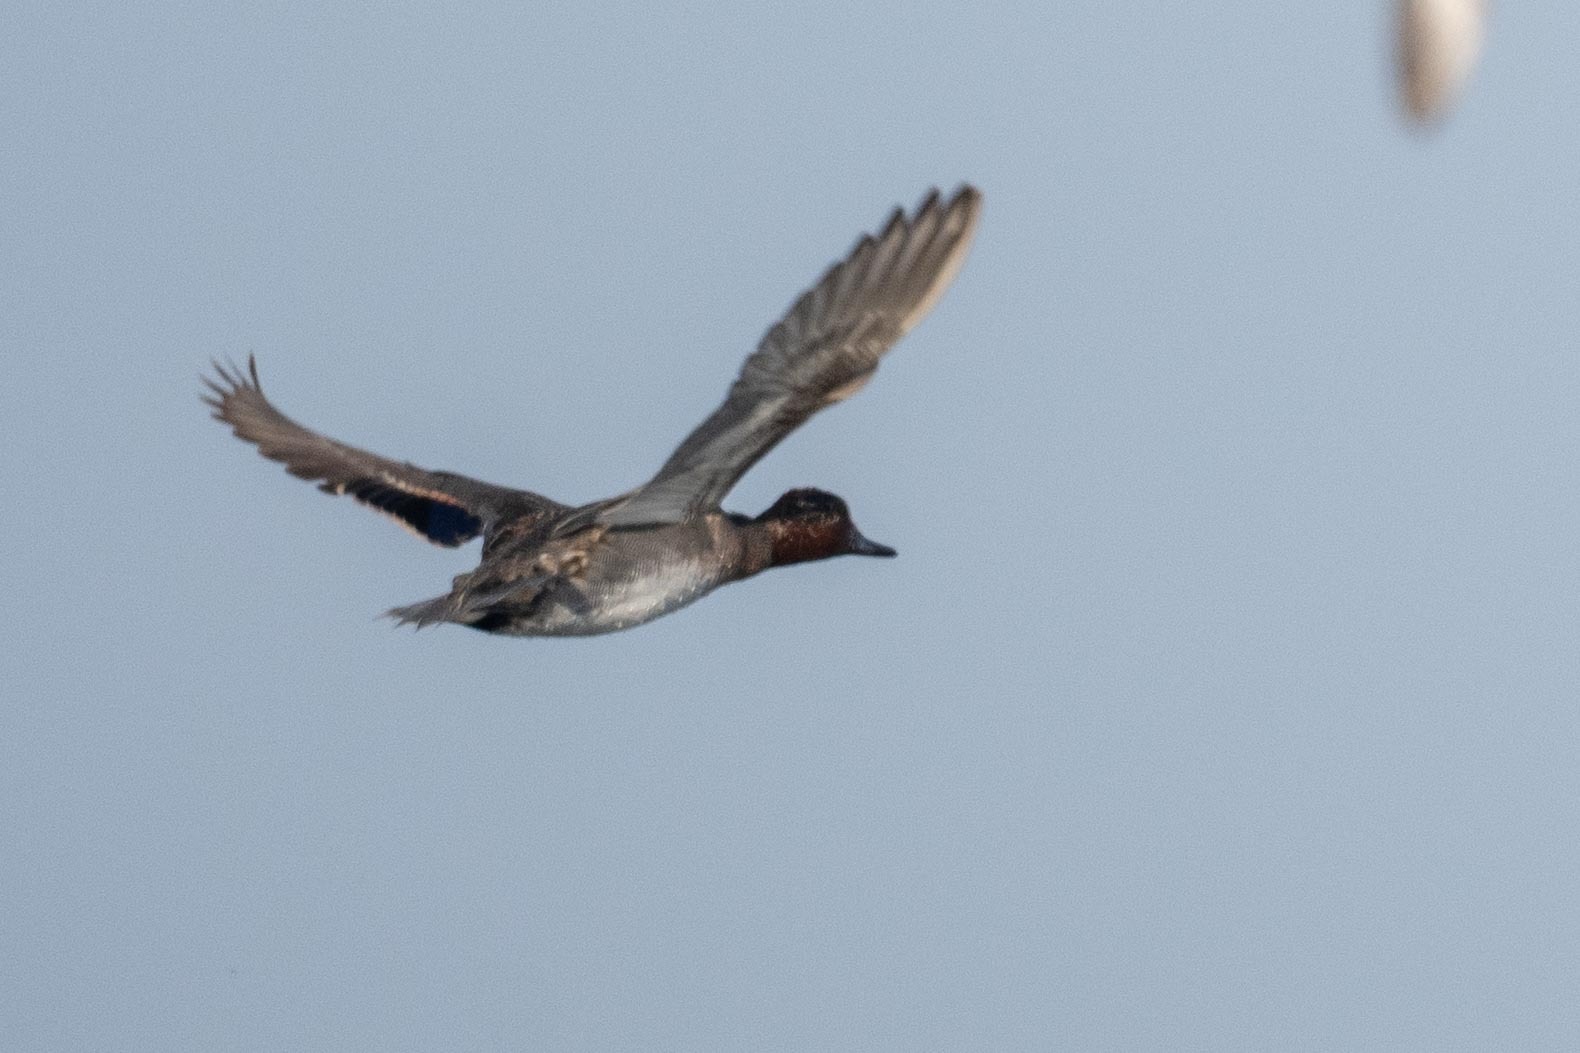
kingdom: Animalia
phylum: Chordata
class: Aves
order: Anseriformes
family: Anatidae
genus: Anas
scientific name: Anas crecca
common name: Eurasian teal
